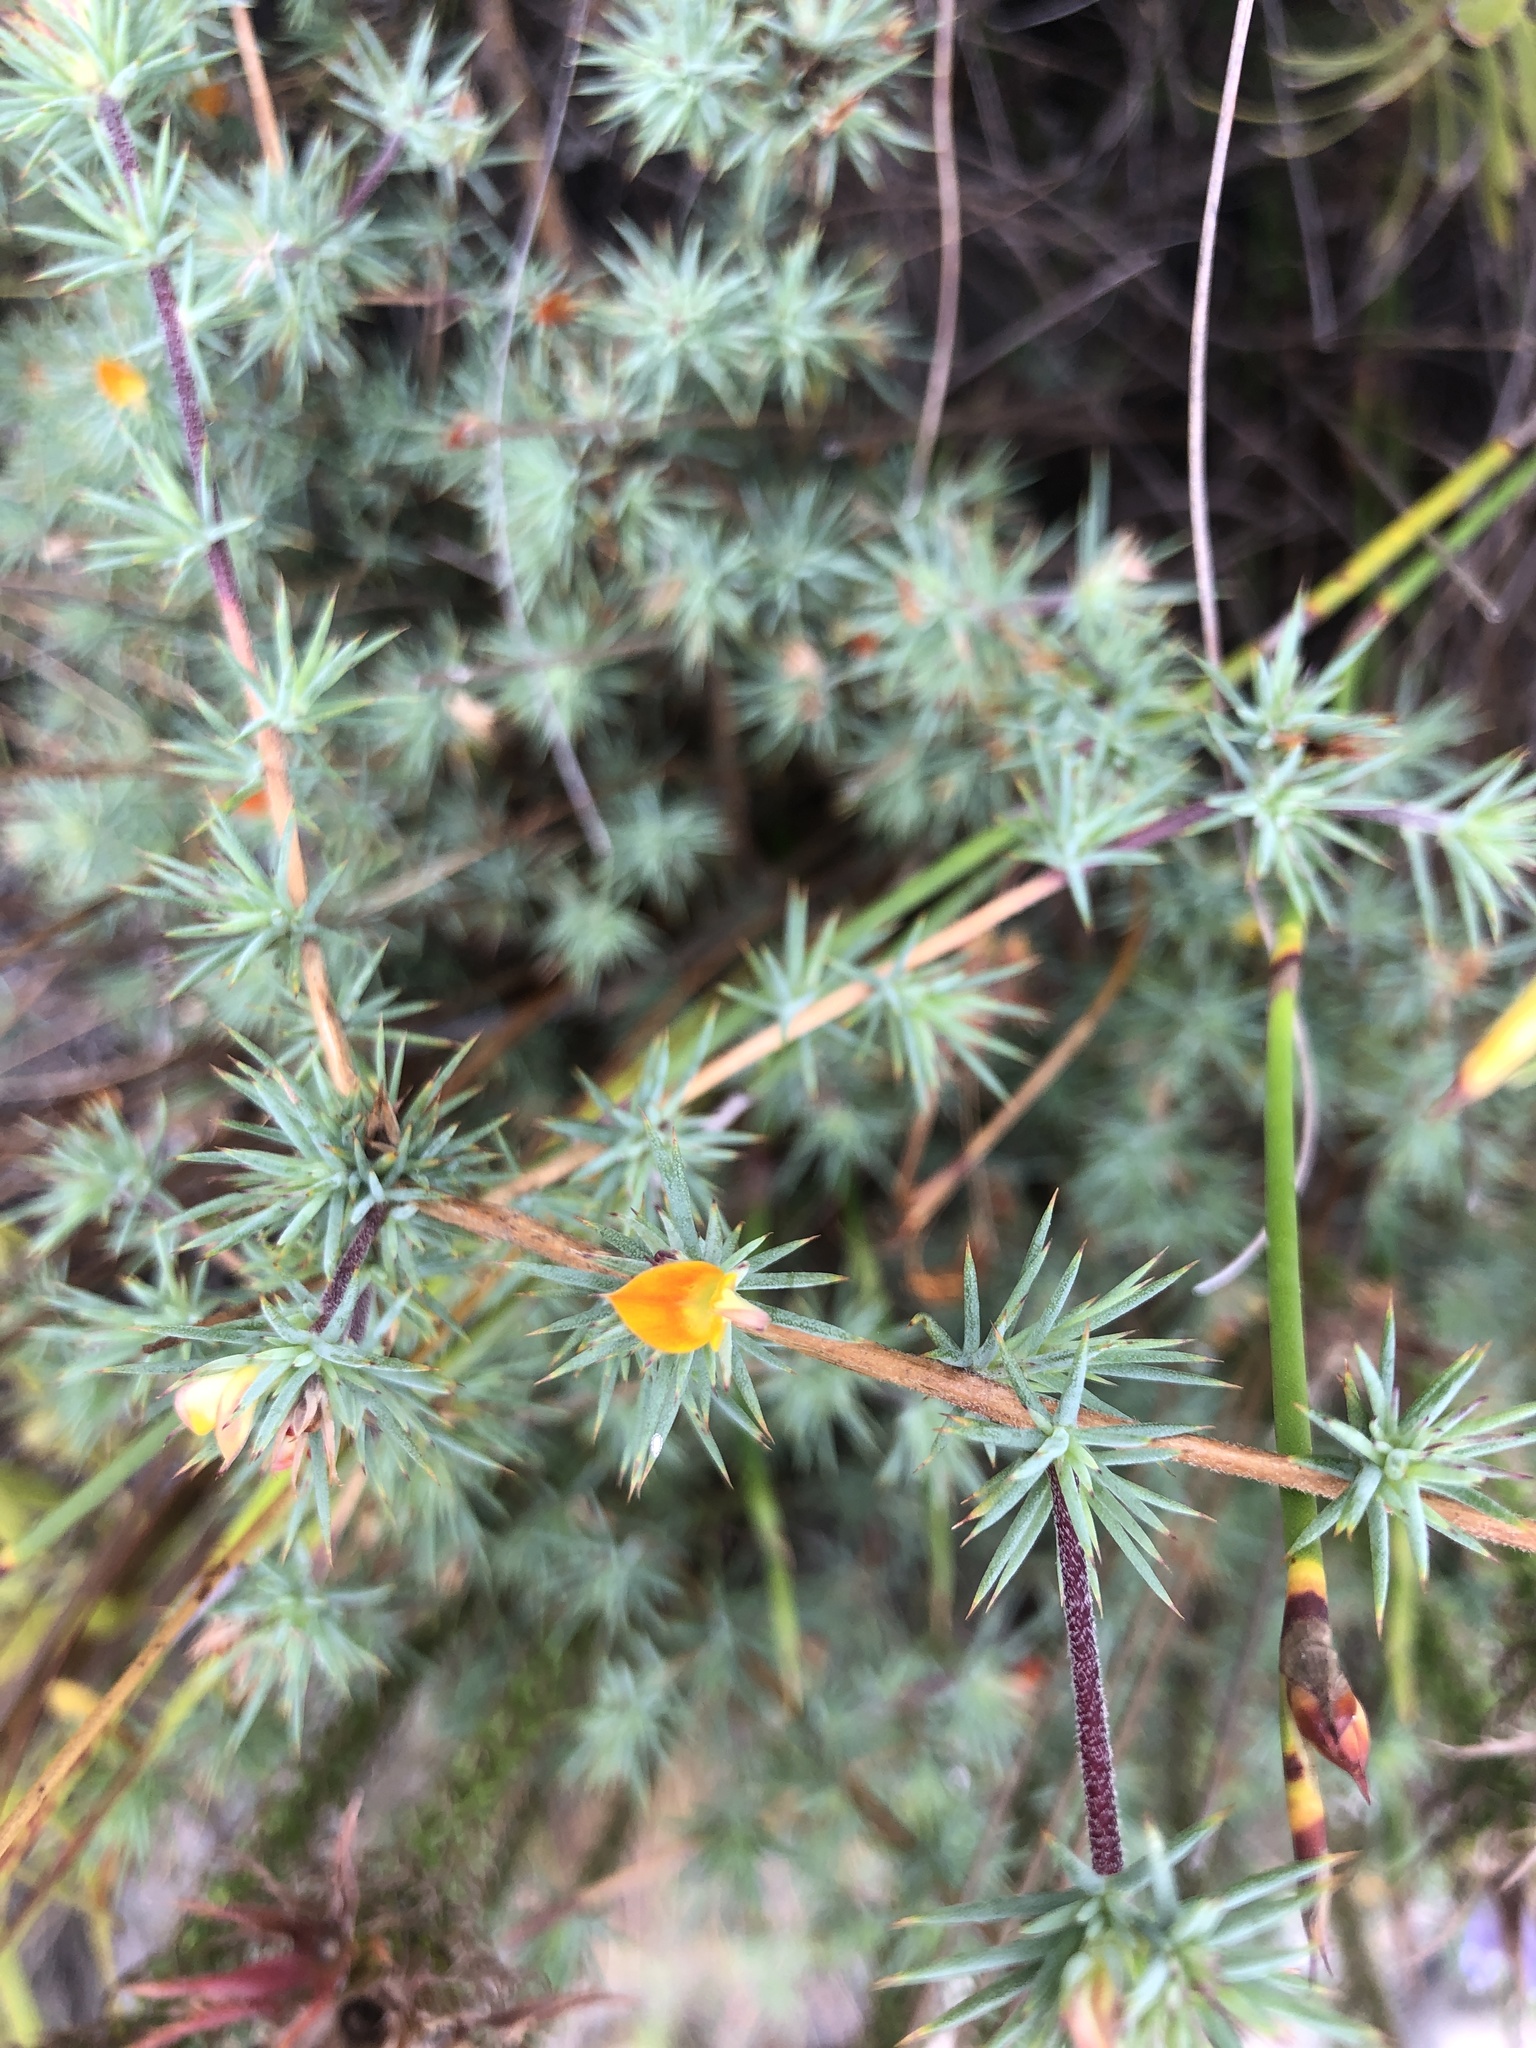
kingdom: Plantae
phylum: Tracheophyta
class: Magnoliopsida
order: Fabales
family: Fabaceae
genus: Aspalathus
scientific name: Aspalathus potbergensis
